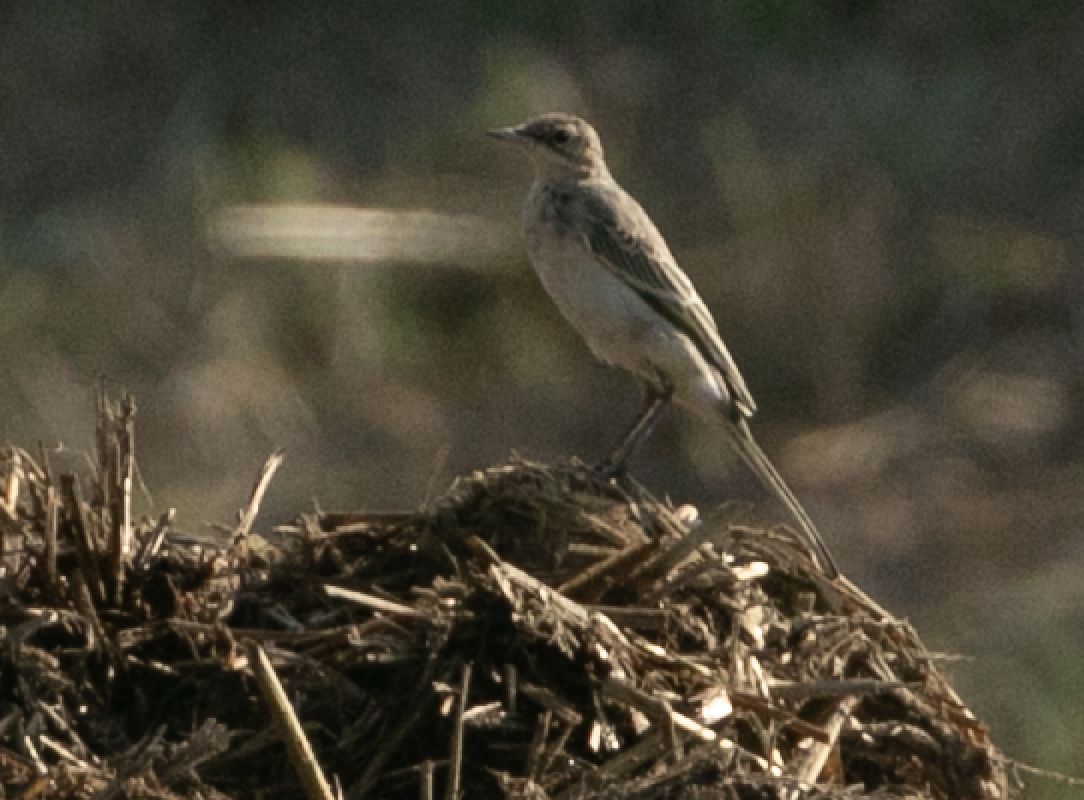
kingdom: Animalia
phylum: Chordata
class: Aves
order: Passeriformes
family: Motacillidae
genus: Motacilla
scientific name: Motacilla flava
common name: Western yellow wagtail
